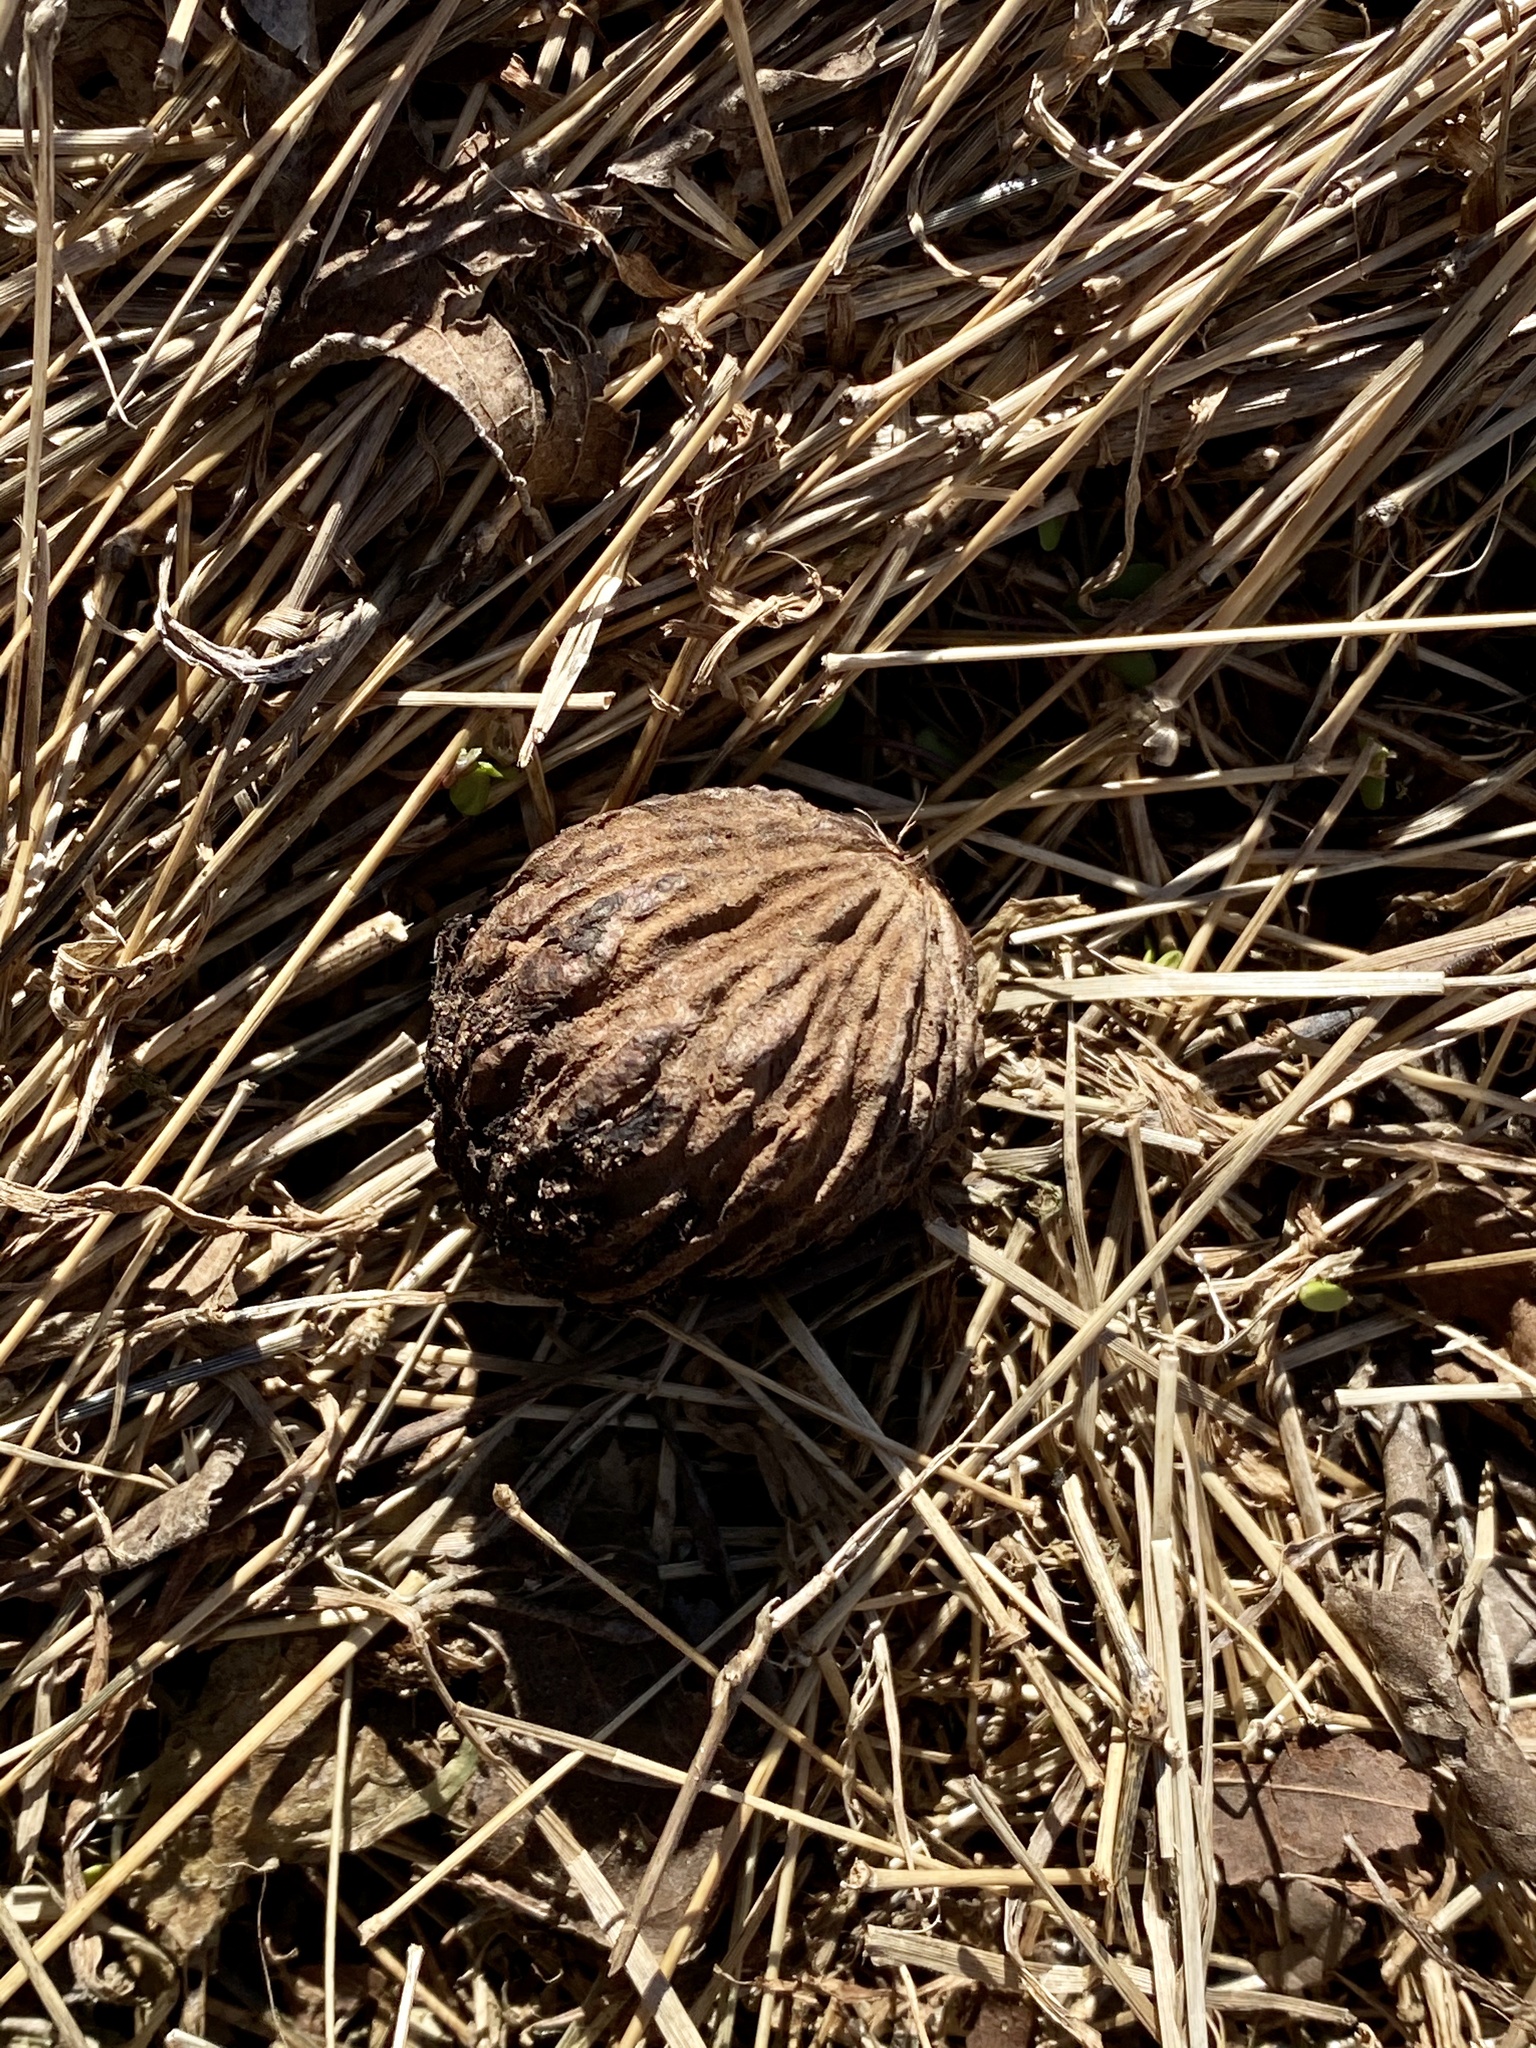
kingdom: Plantae
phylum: Tracheophyta
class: Magnoliopsida
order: Fagales
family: Juglandaceae
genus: Juglans
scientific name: Juglans nigra
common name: Black walnut
